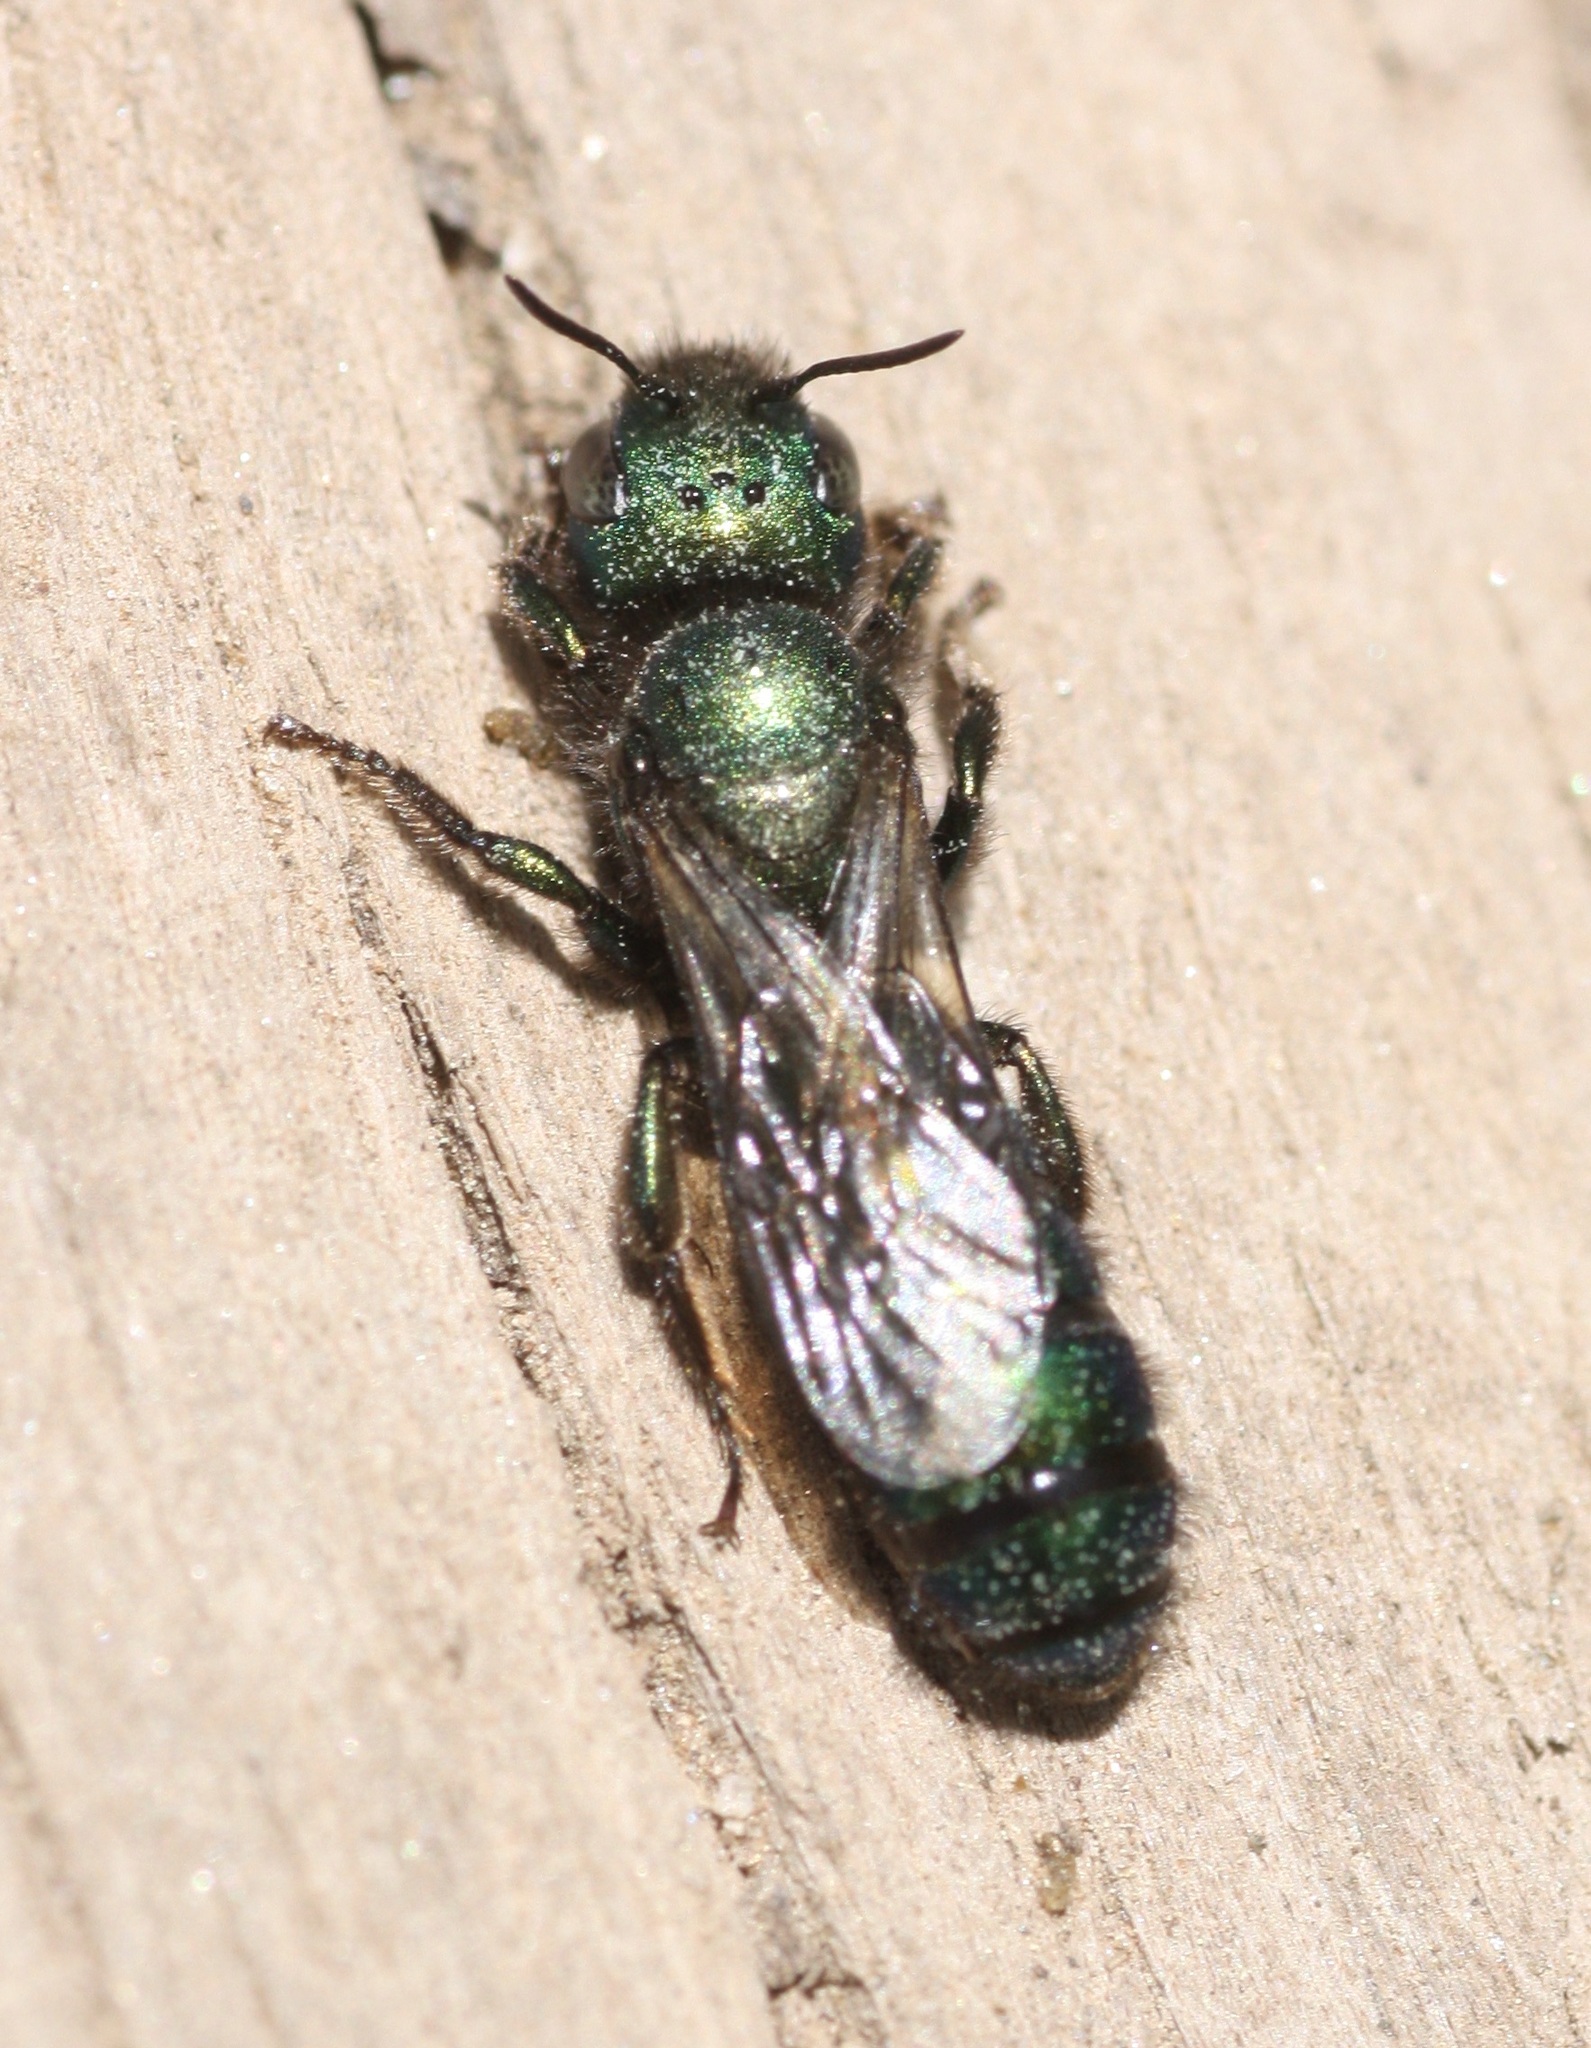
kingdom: Animalia
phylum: Arthropoda
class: Insecta
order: Hymenoptera
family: Megachilidae
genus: Hoplitis
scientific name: Hoplitis fulgida
